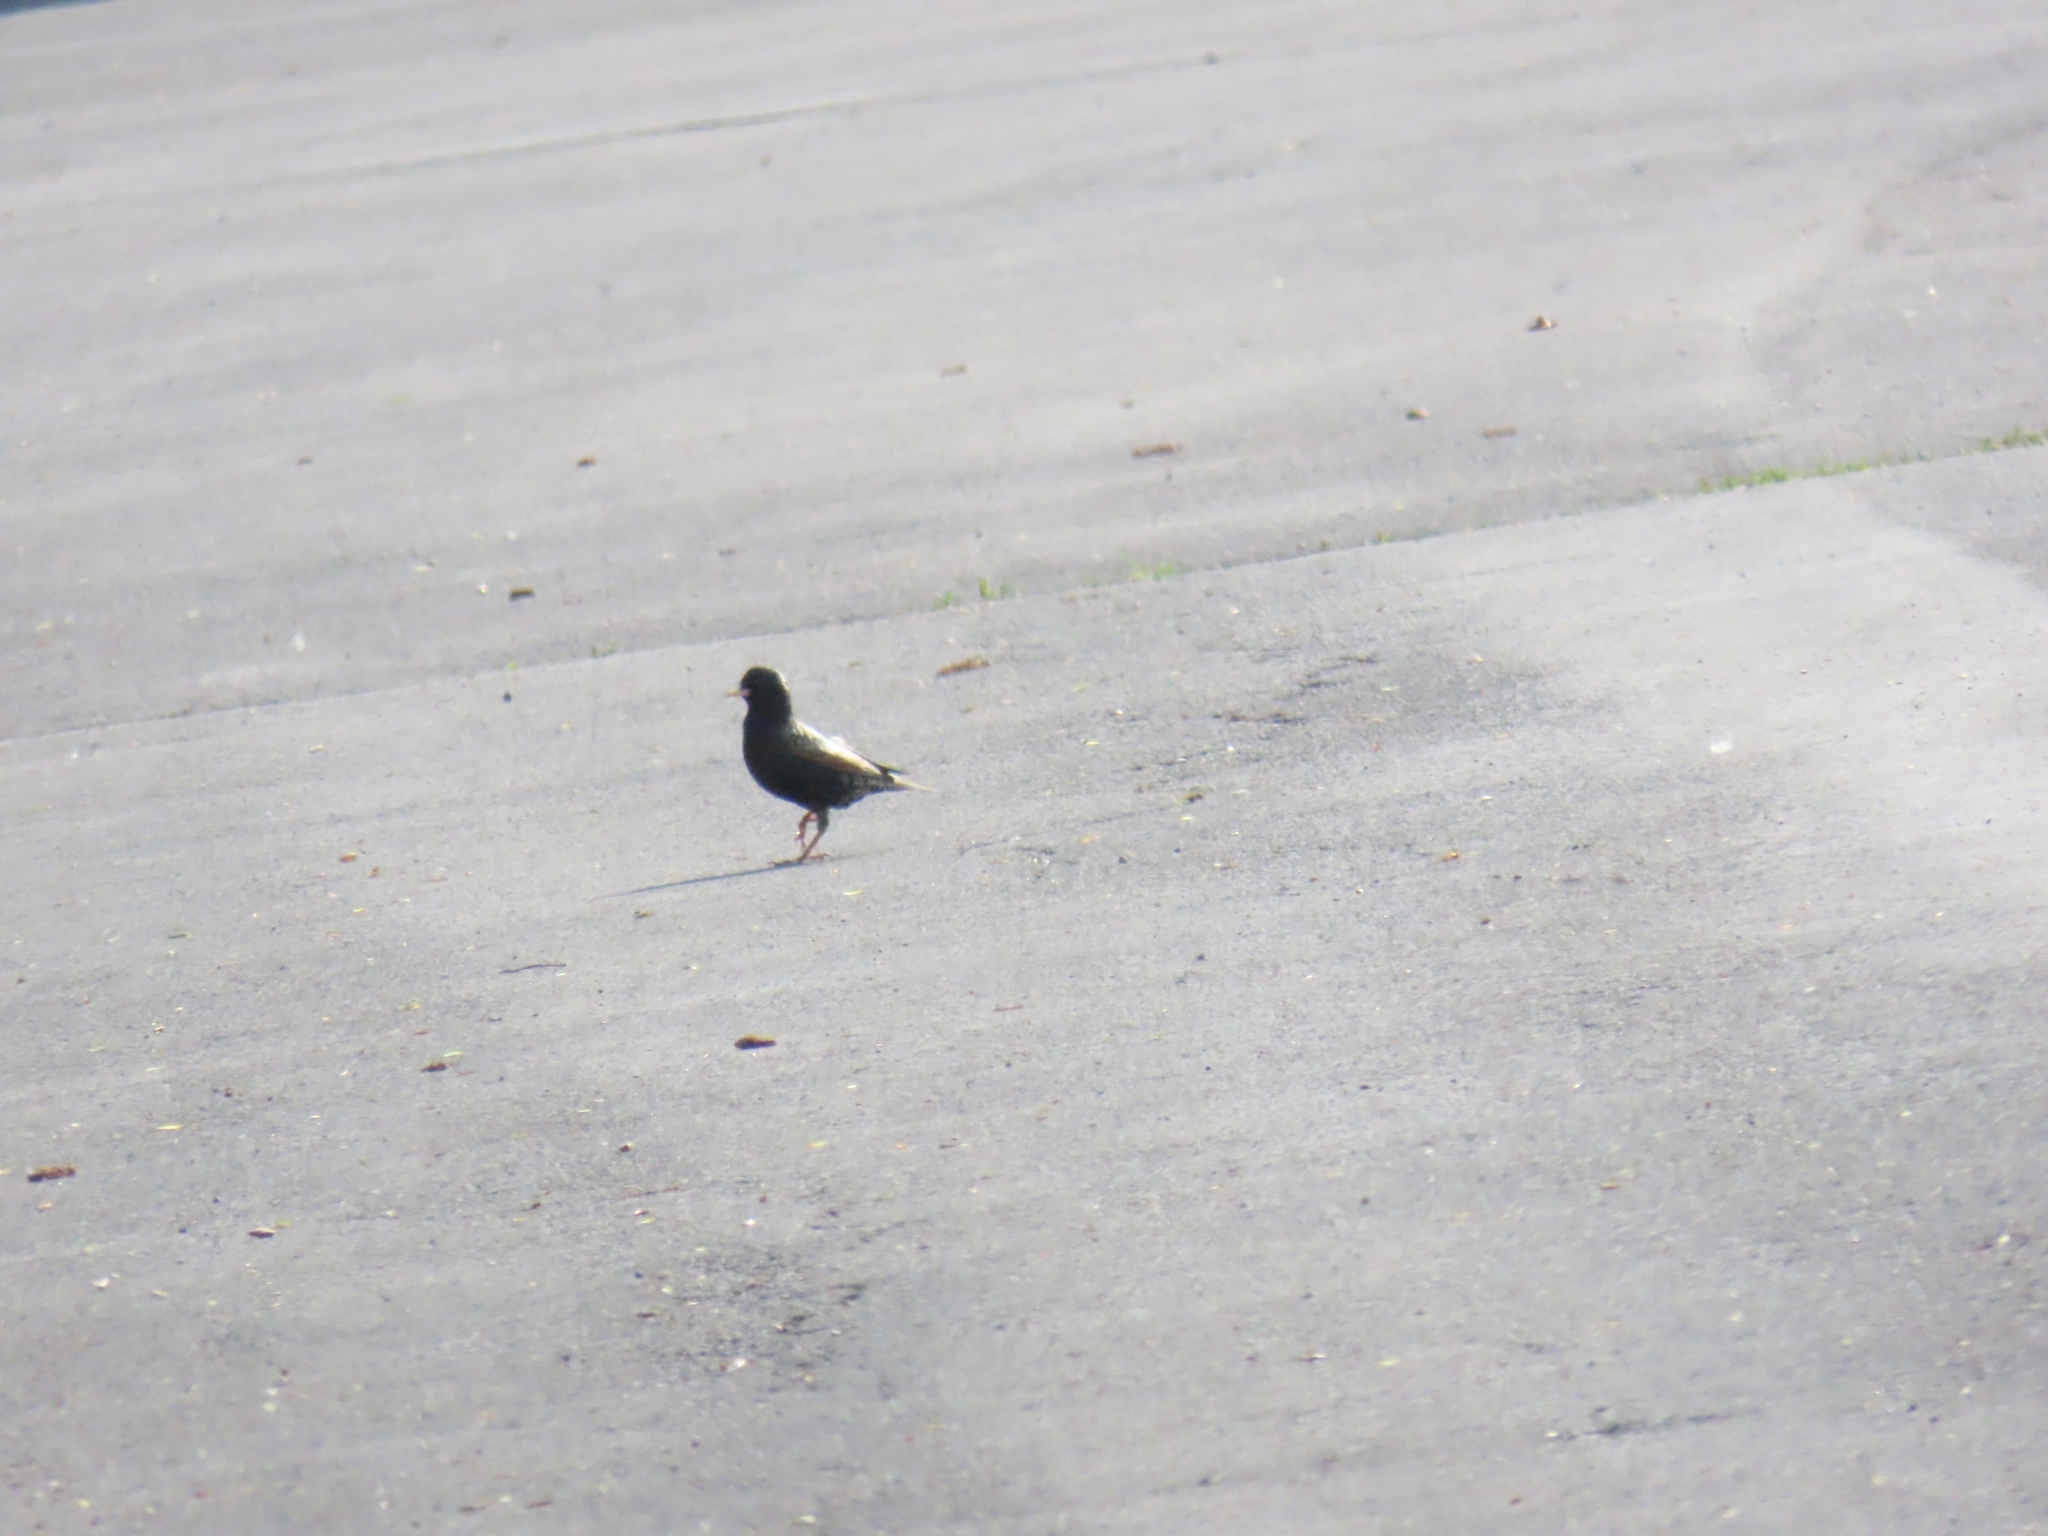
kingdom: Animalia
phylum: Chordata
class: Aves
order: Passeriformes
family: Sturnidae
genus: Sturnus
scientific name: Sturnus vulgaris
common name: Common starling
